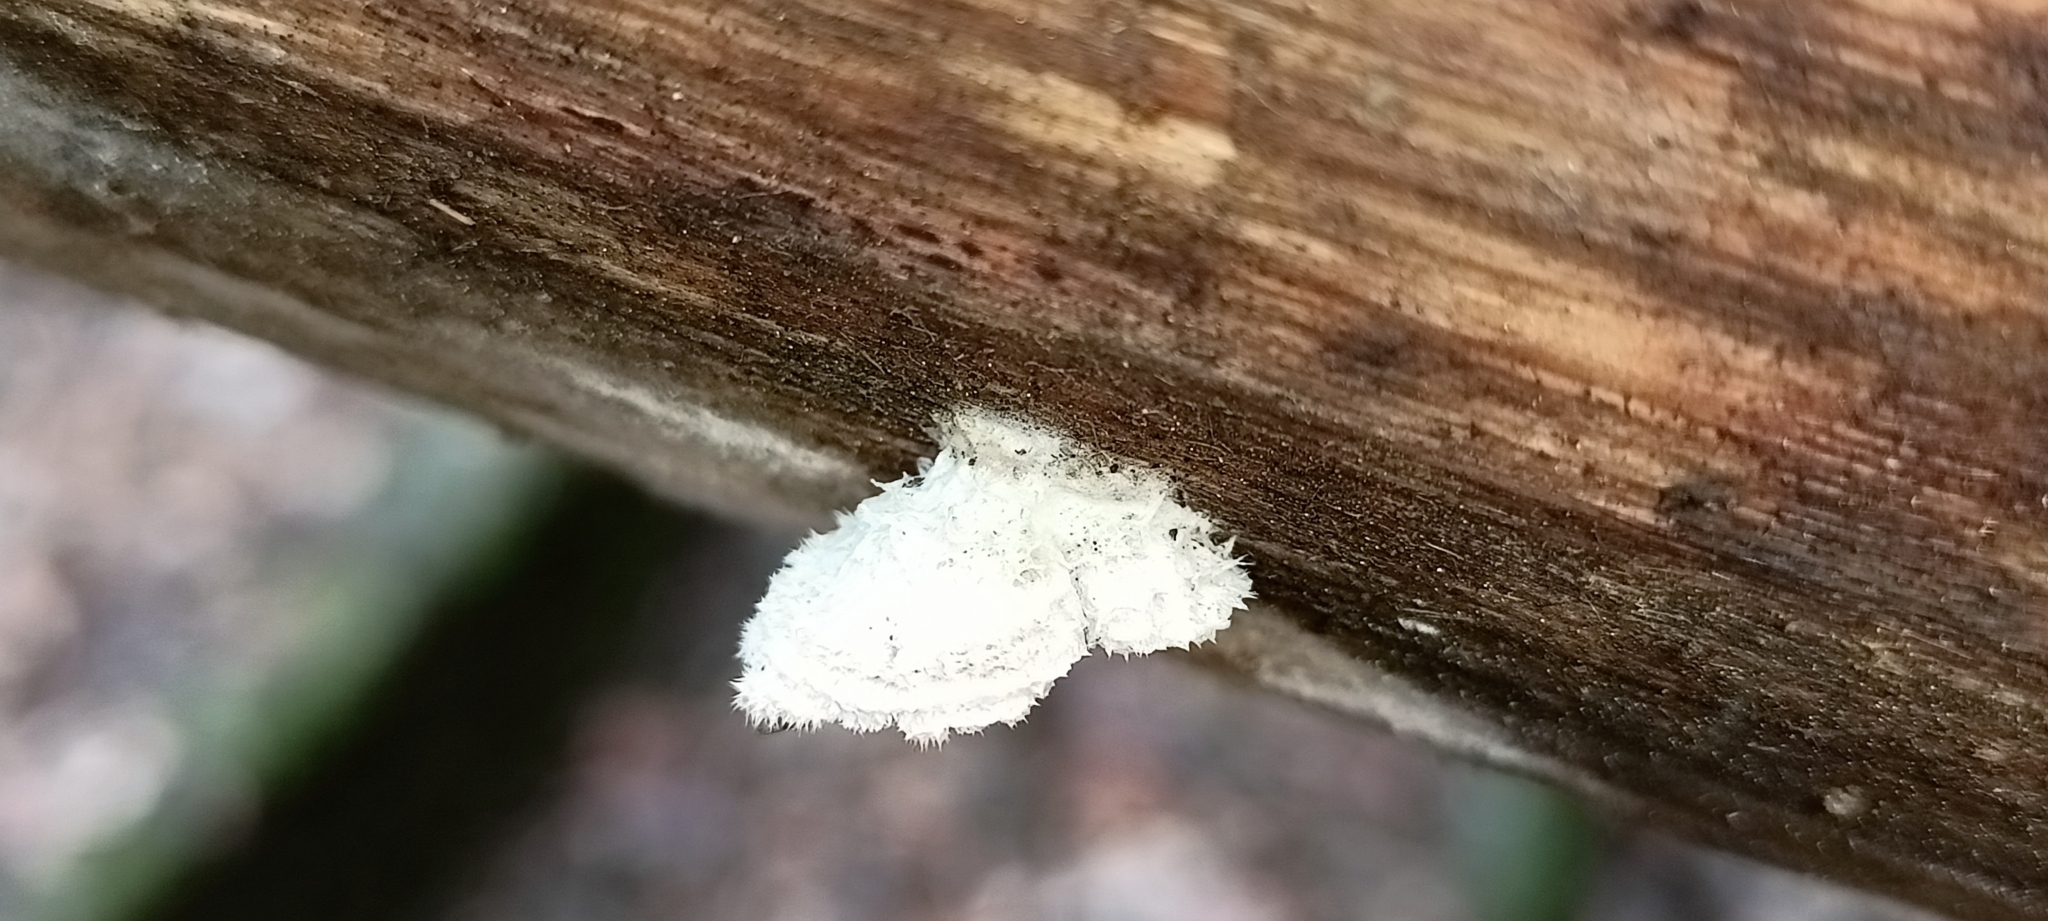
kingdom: Fungi
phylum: Basidiomycota
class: Agaricomycetes
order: Agaricales
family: Schizophyllaceae
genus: Schizophyllum
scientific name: Schizophyllum commune
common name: Common porecrust
